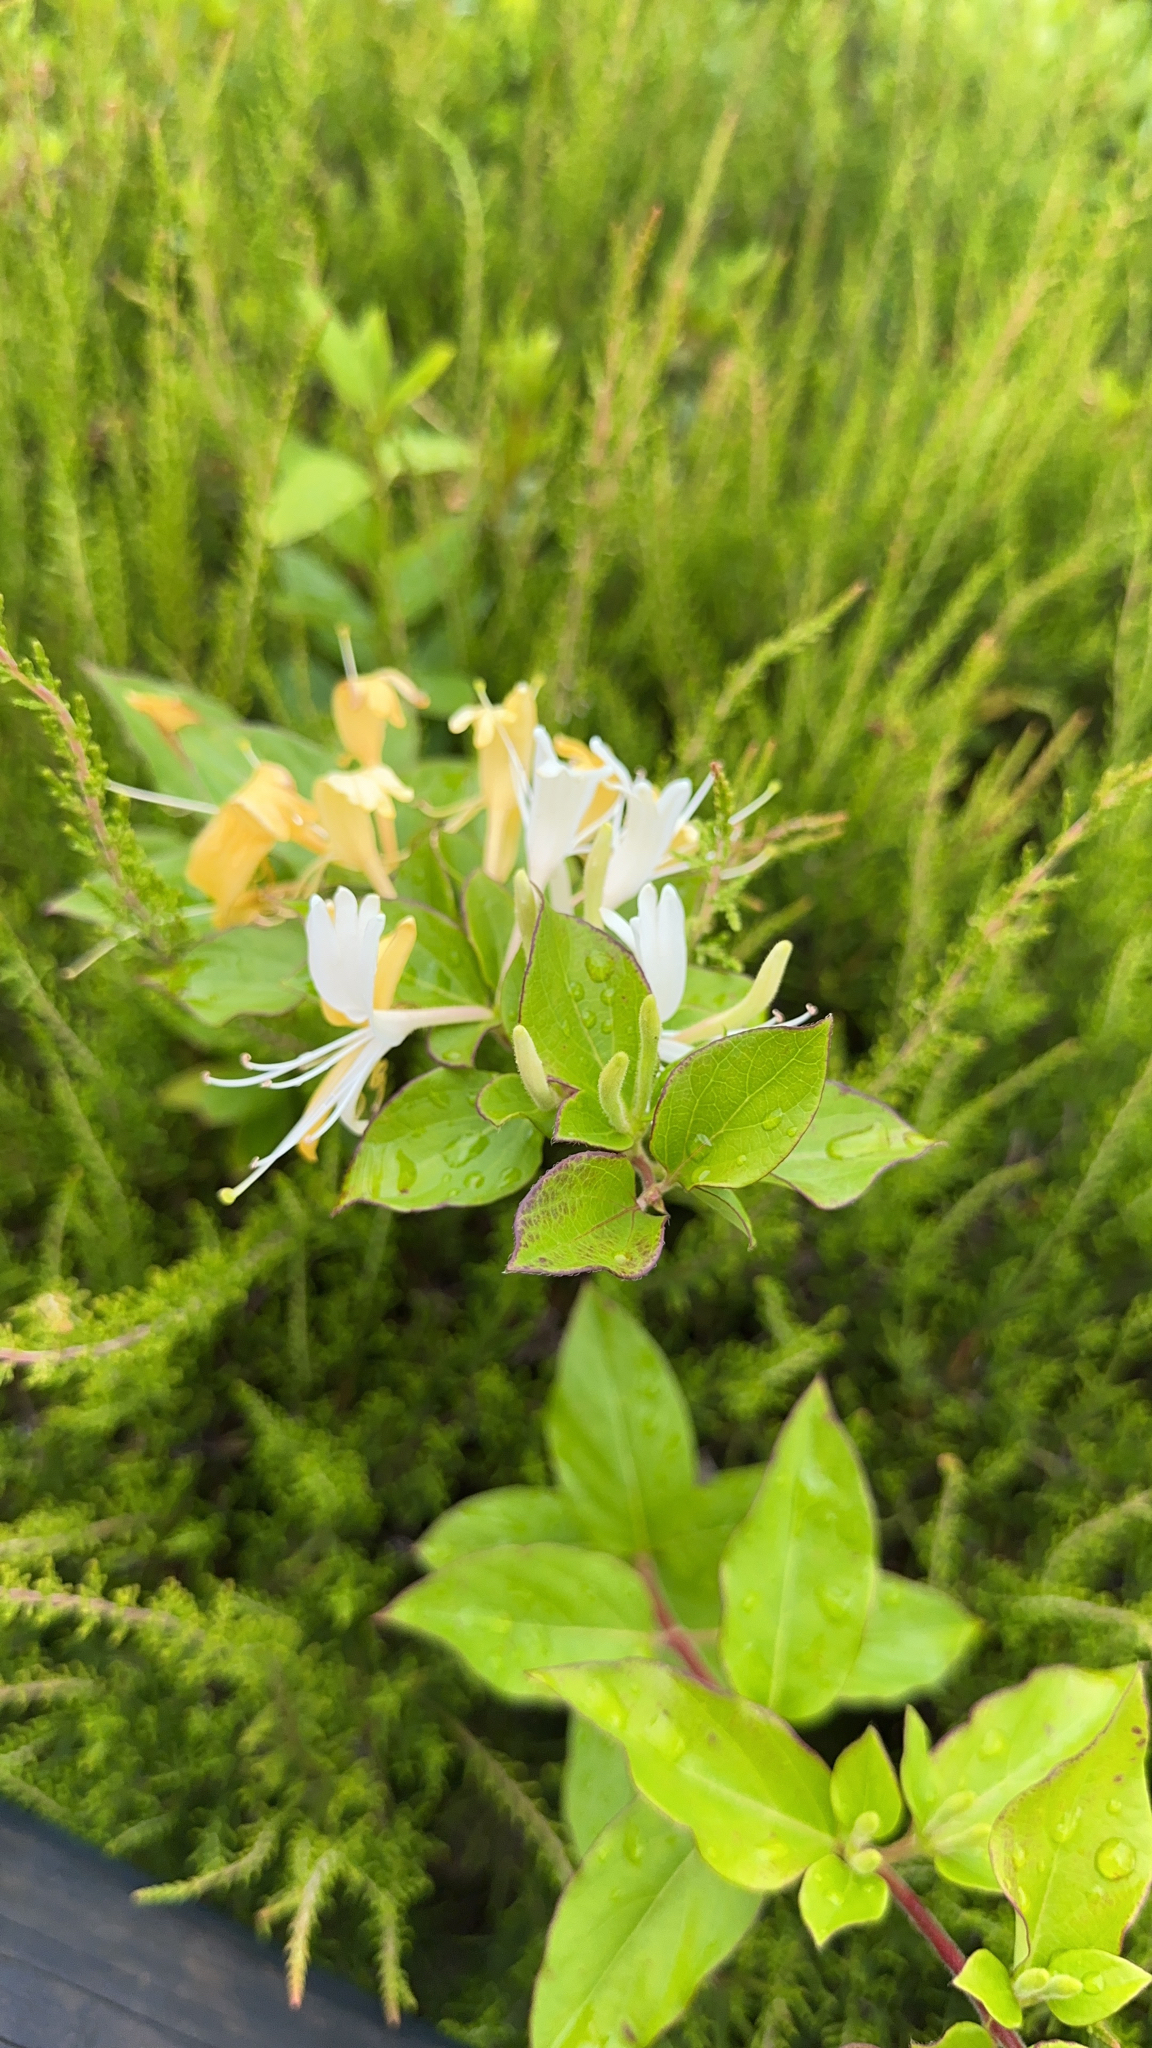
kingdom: Plantae
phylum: Tracheophyta
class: Magnoliopsida
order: Dipsacales
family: Caprifoliaceae
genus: Lonicera
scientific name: Lonicera japonica
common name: Japanese honeysuckle
